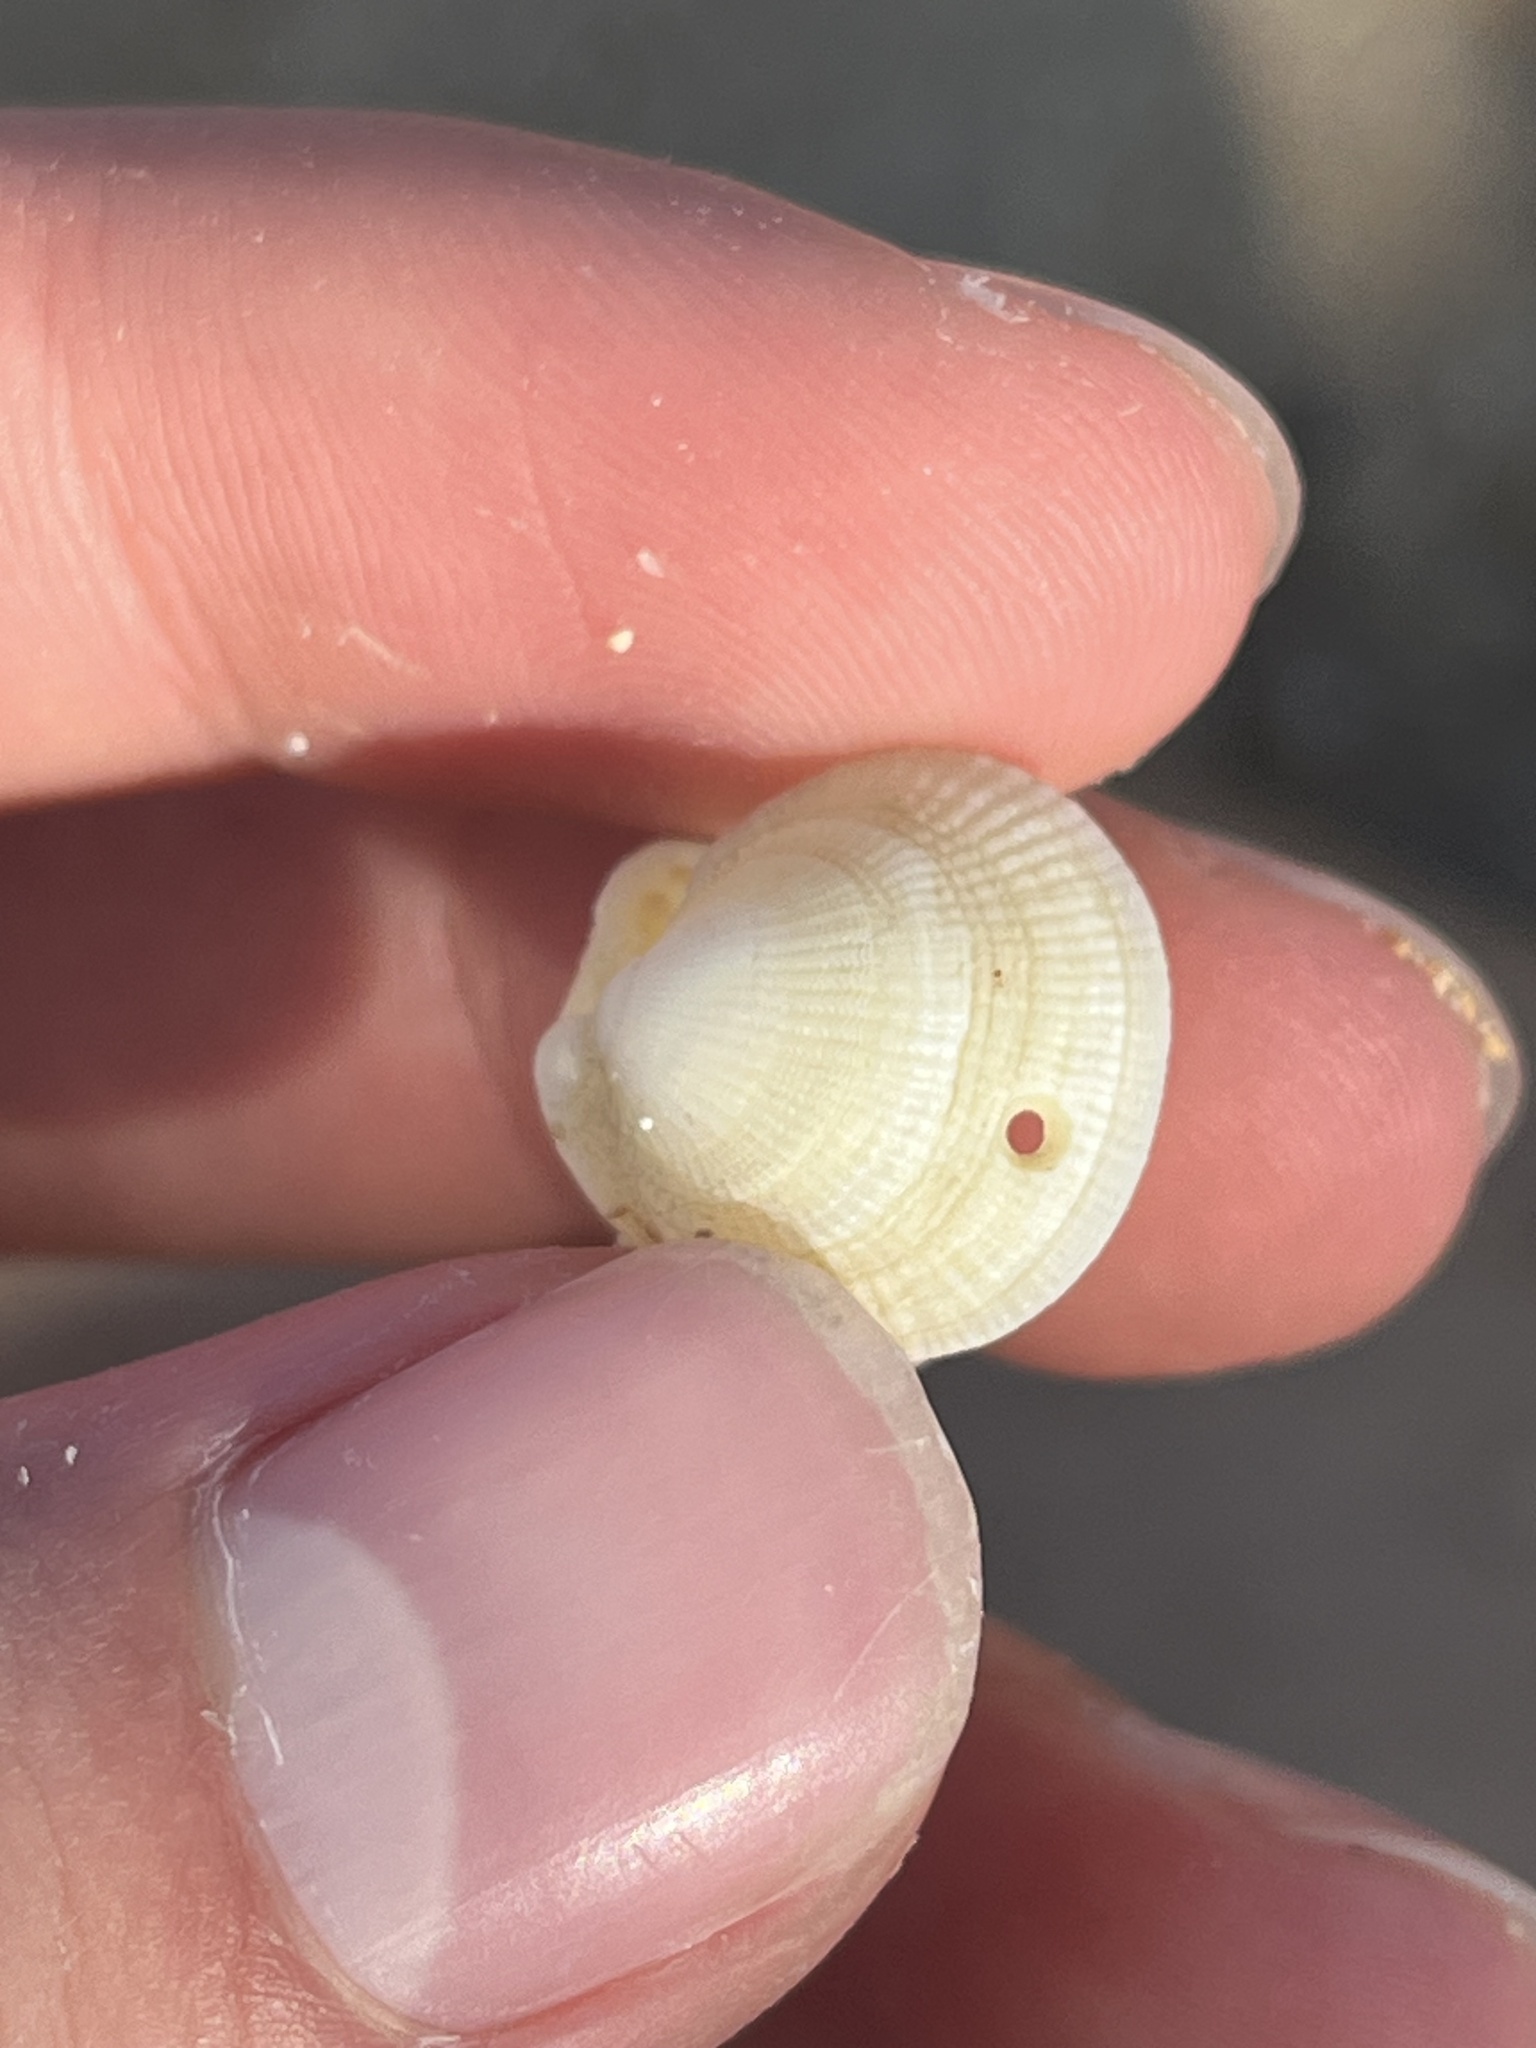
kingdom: Animalia
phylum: Mollusca
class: Bivalvia
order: Lucinida
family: Lucinidae
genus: Ctena
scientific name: Ctena bella
